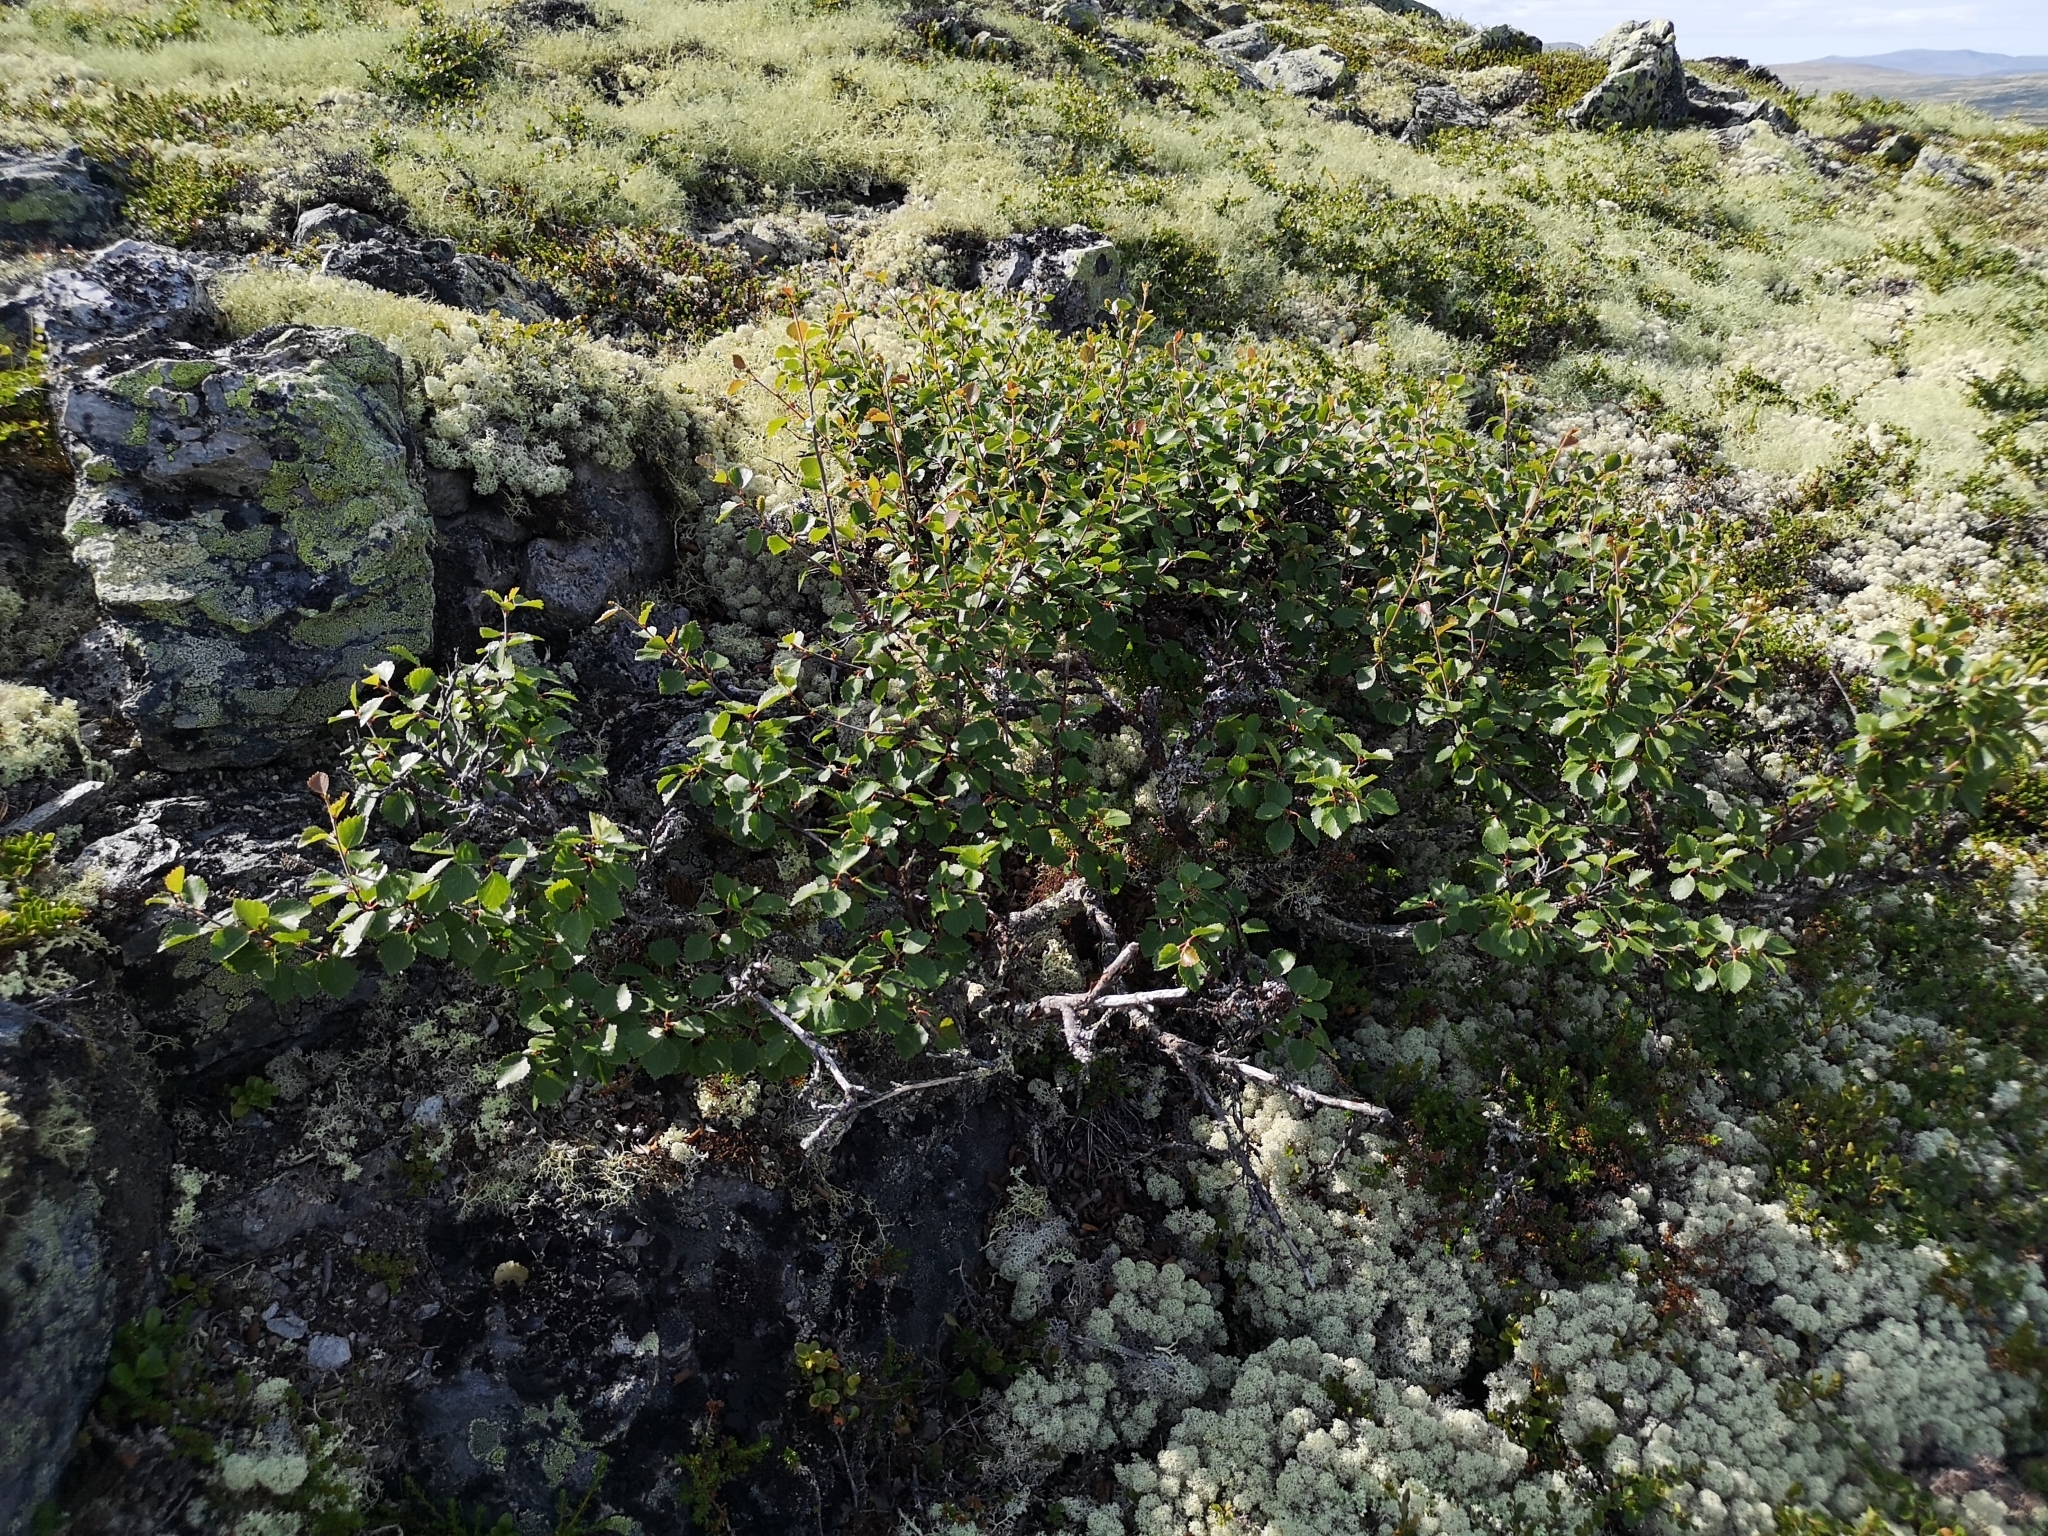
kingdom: Plantae
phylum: Tracheophyta
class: Magnoliopsida
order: Fagales
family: Betulaceae
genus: Betula
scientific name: Betula pubescens
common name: Downy birch
